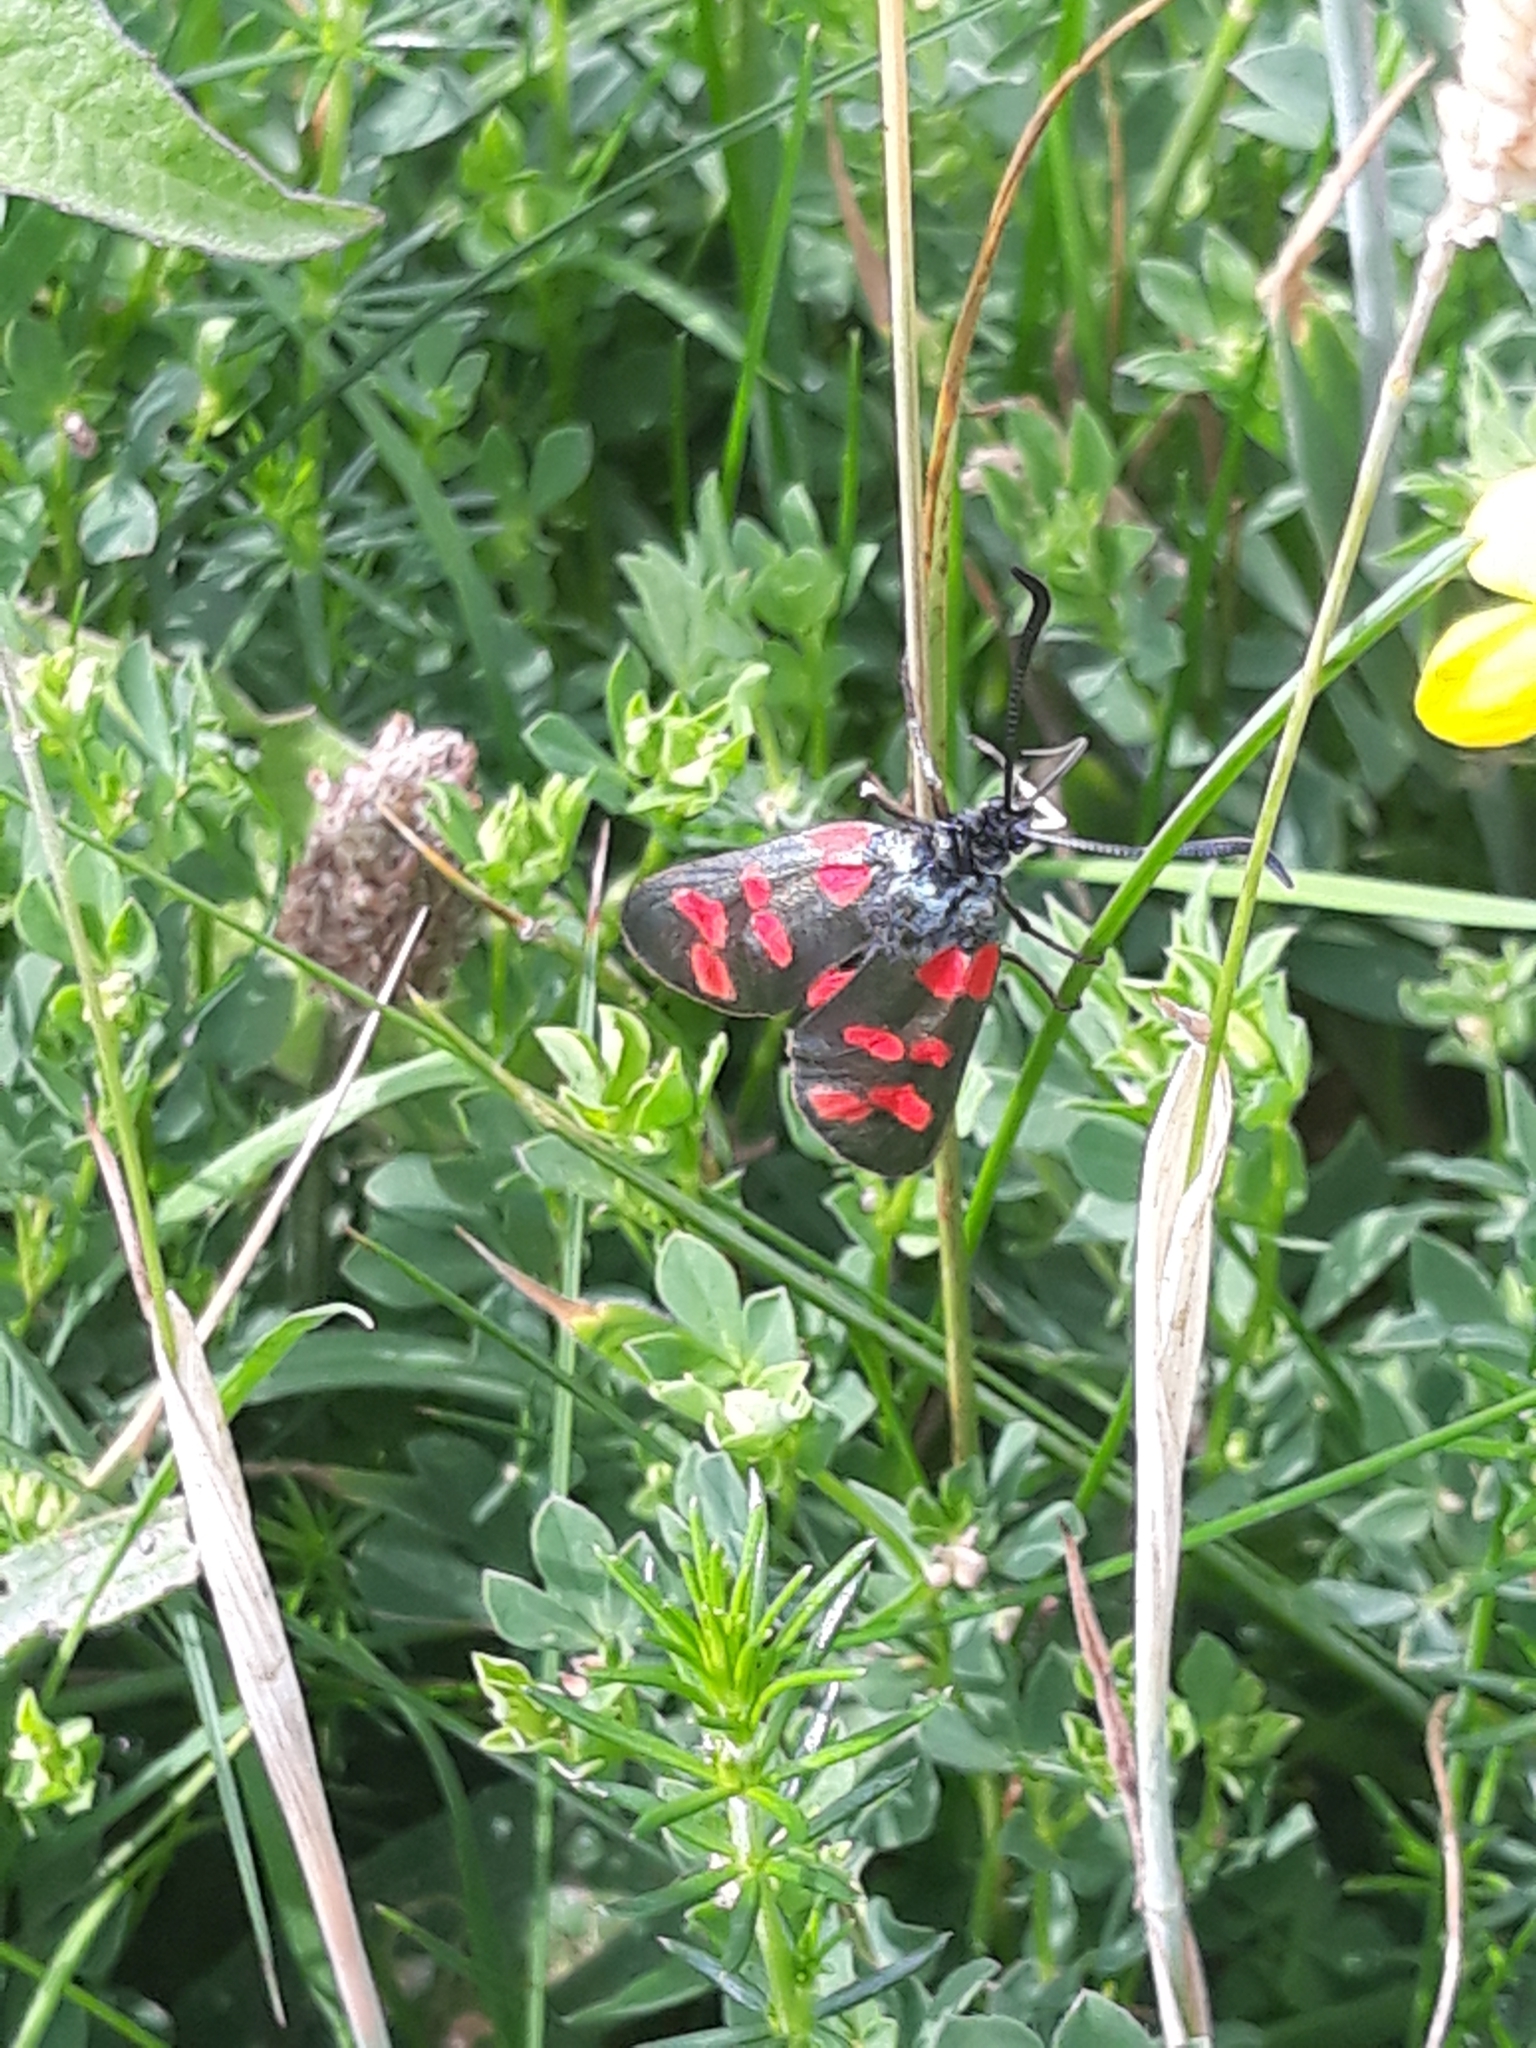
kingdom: Animalia
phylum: Arthropoda
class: Insecta
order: Lepidoptera
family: Zygaenidae
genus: Zygaena
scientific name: Zygaena filipendulae
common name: Six-spot burnet
